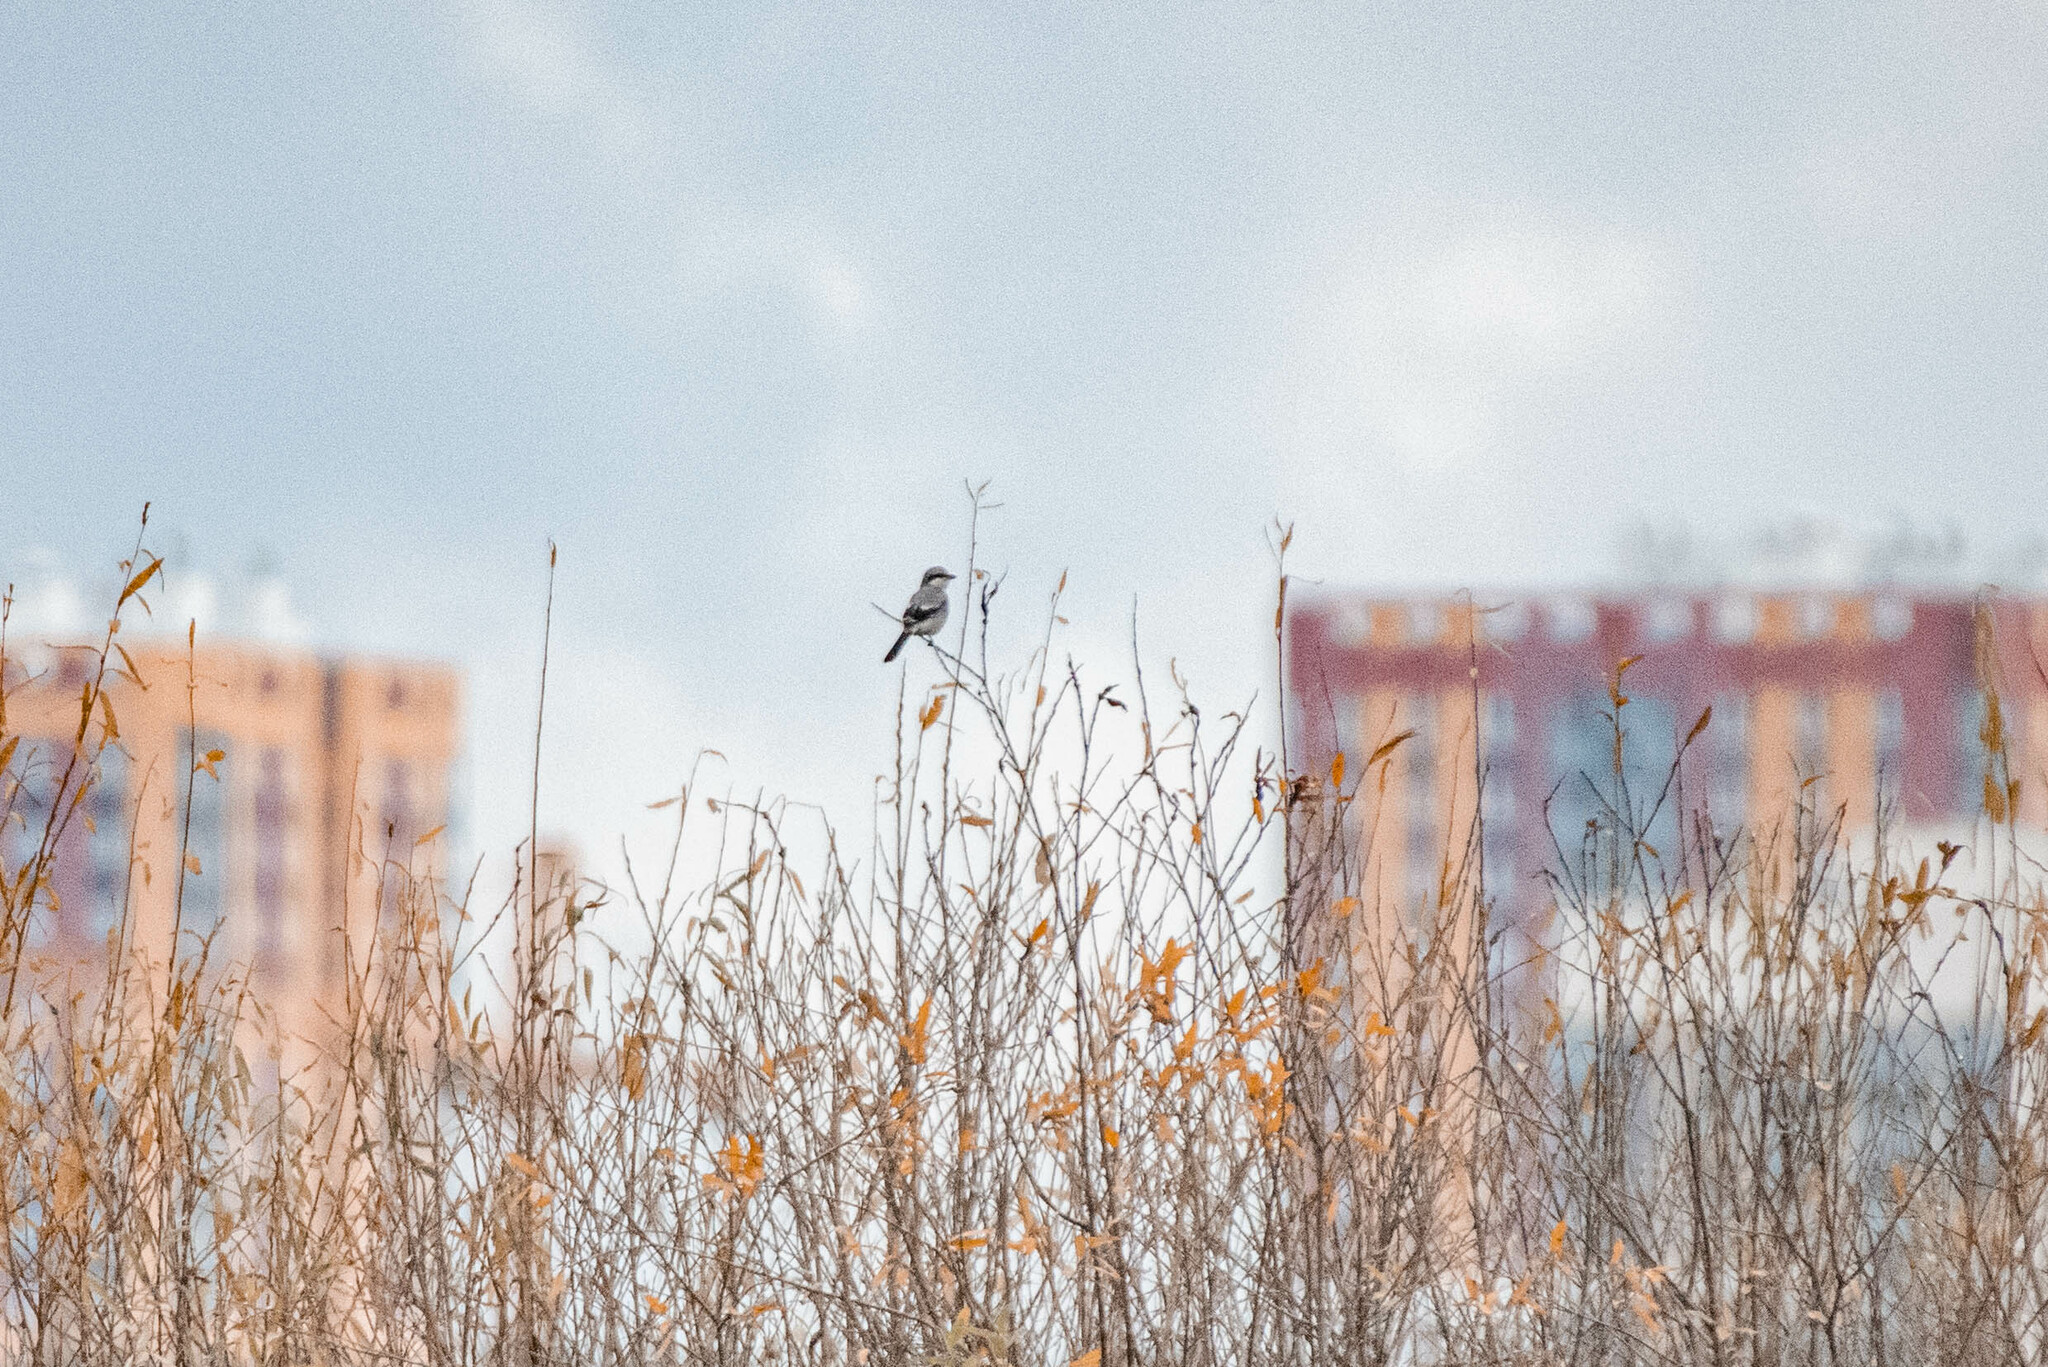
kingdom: Animalia
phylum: Chordata
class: Aves
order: Passeriformes
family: Laniidae
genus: Lanius
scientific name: Lanius excubitor
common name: Great grey shrike
